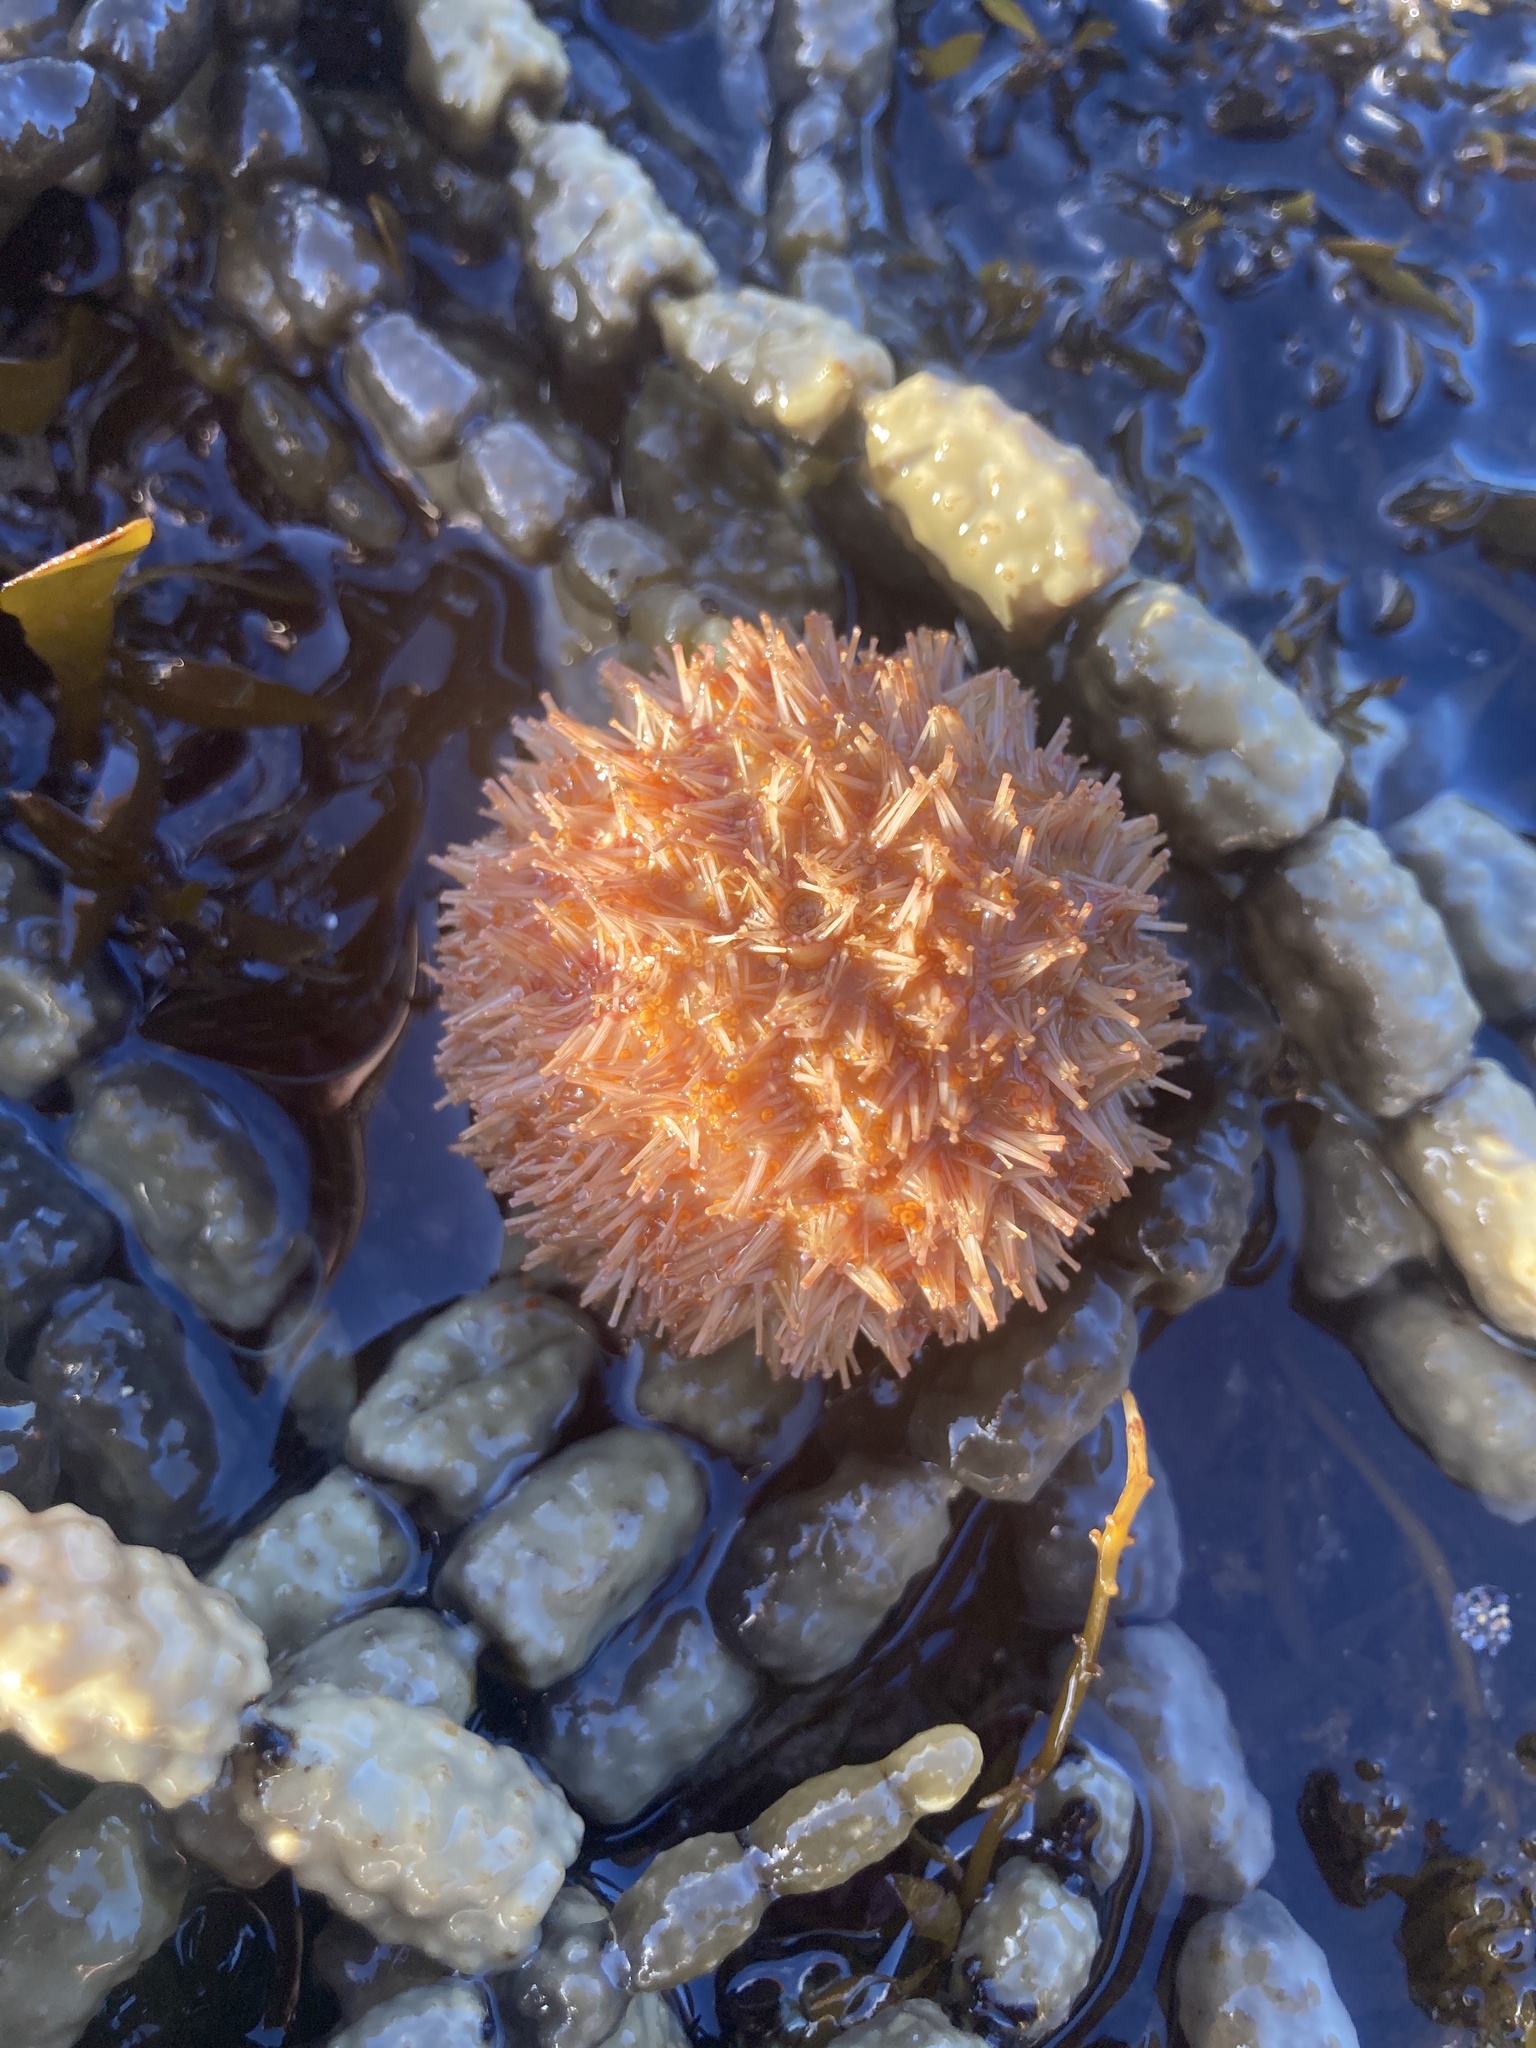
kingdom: Animalia
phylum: Echinodermata
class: Echinoidea
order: Camarodonta
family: Temnopleuridae
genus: Holopneustes
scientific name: Holopneustes inflatus
